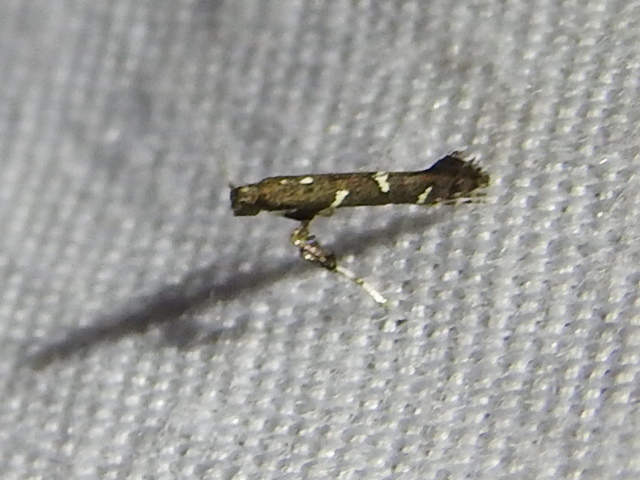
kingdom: Animalia
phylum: Arthropoda
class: Insecta
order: Lepidoptera
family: Gracillariidae
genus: Caloptilia
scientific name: Caloptilia triadicae
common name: Tallow leaf roller
